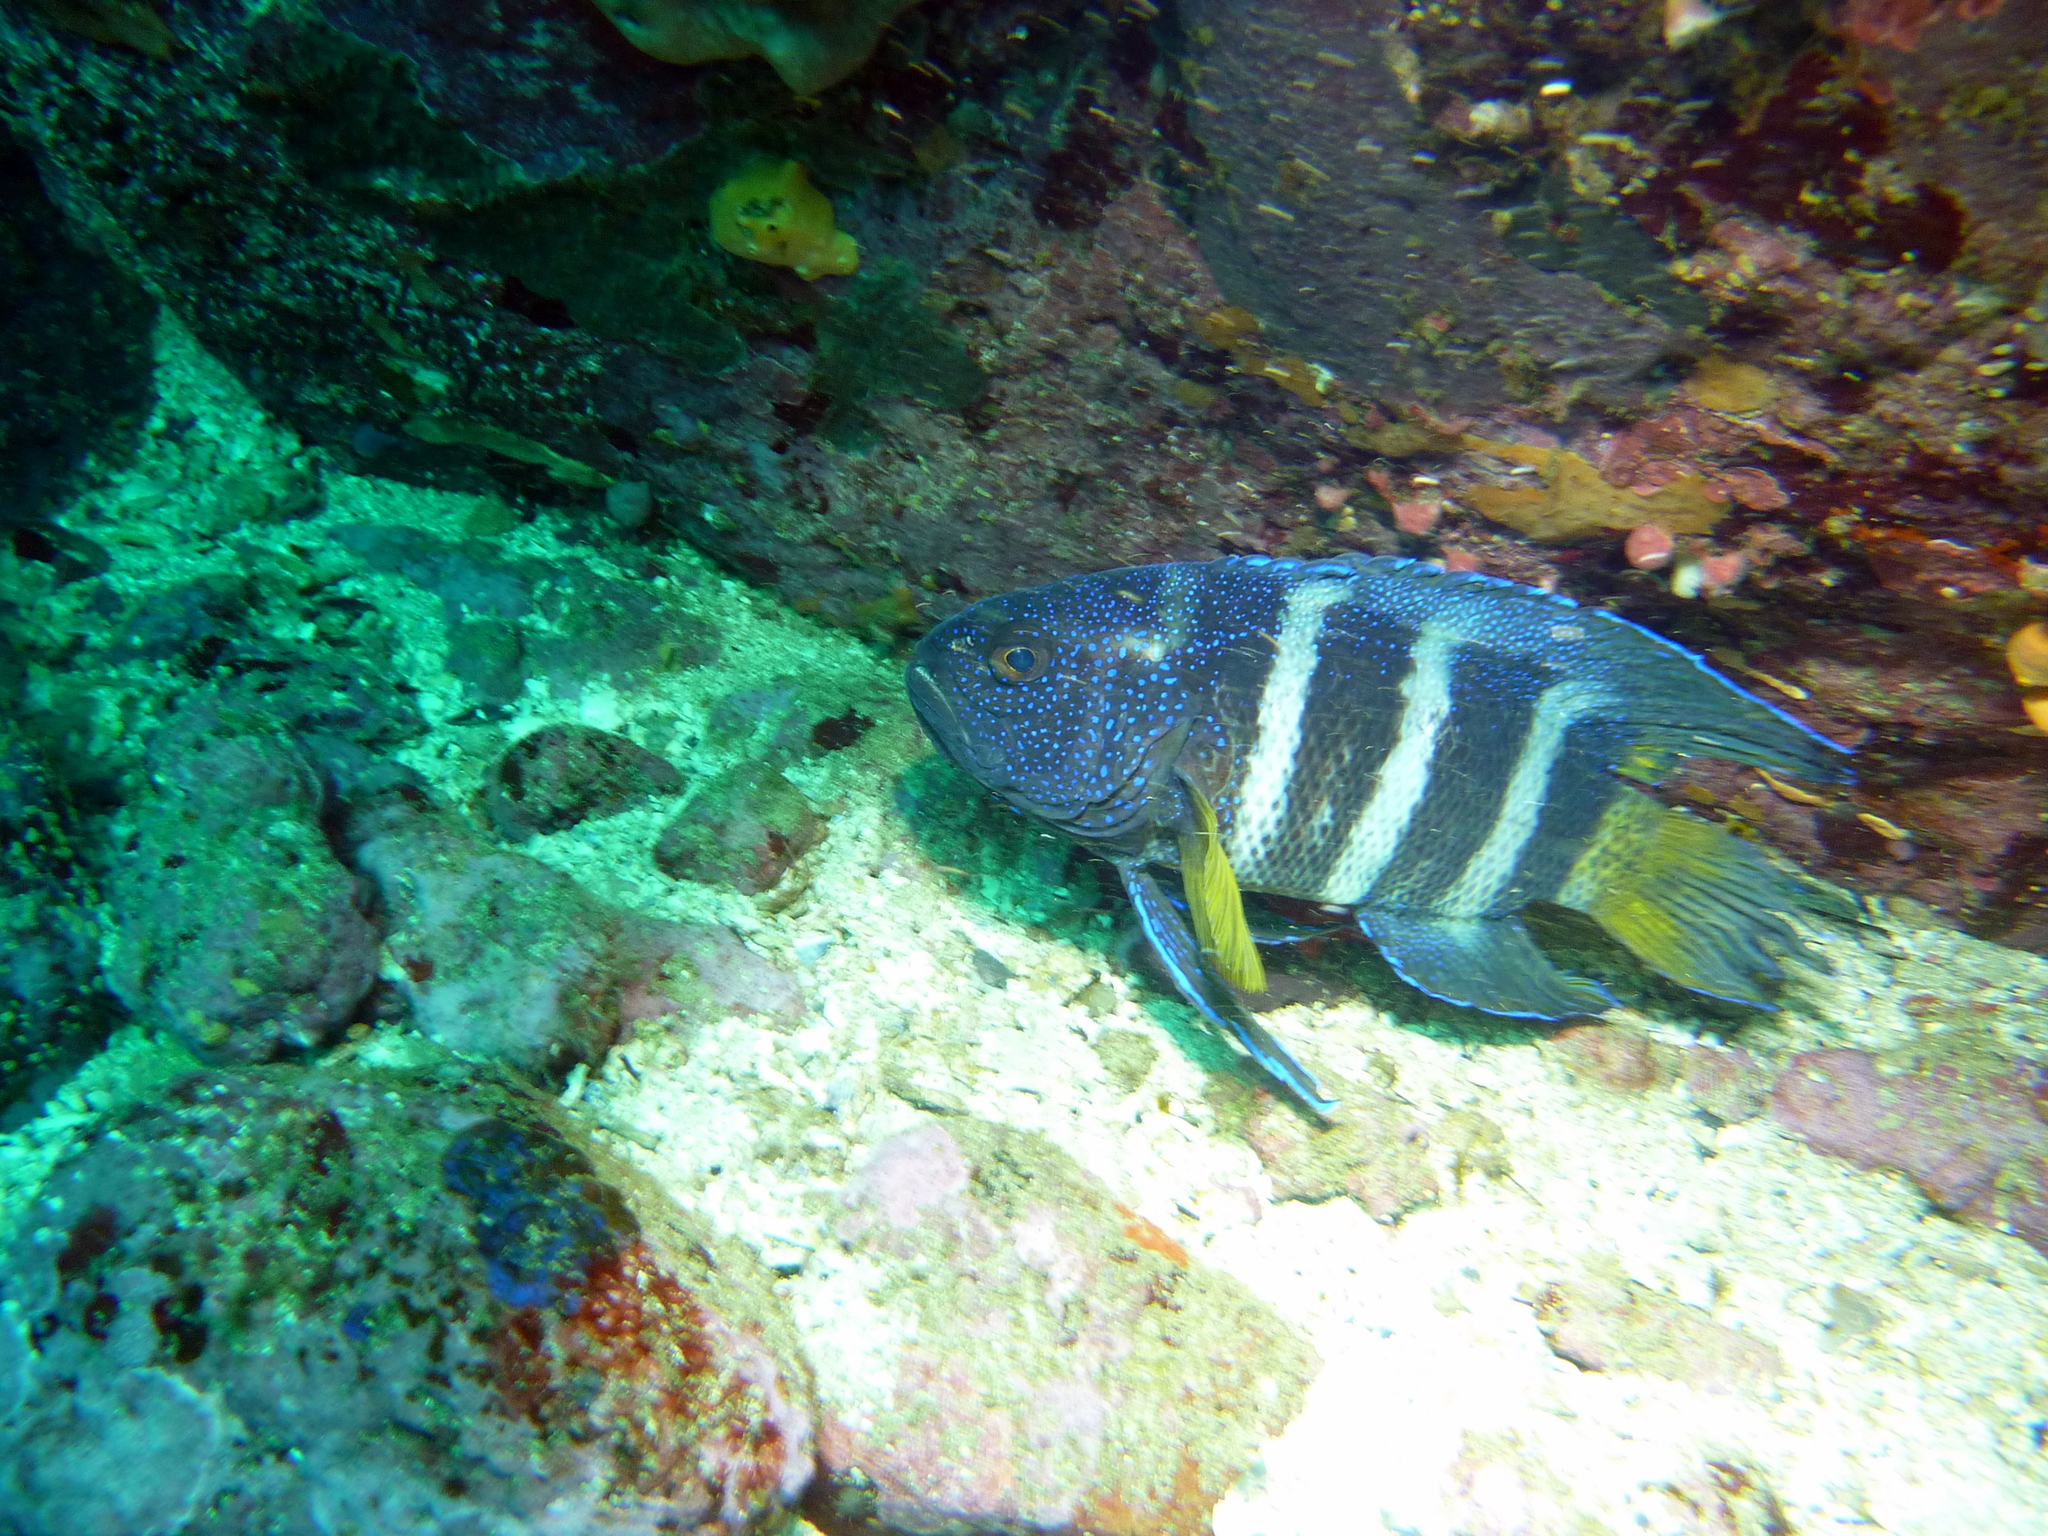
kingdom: Animalia
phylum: Chordata
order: Perciformes
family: Plesiopidae
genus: Paraplesiops
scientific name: Paraplesiops bleekeri
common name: Bleeker's devilfish
